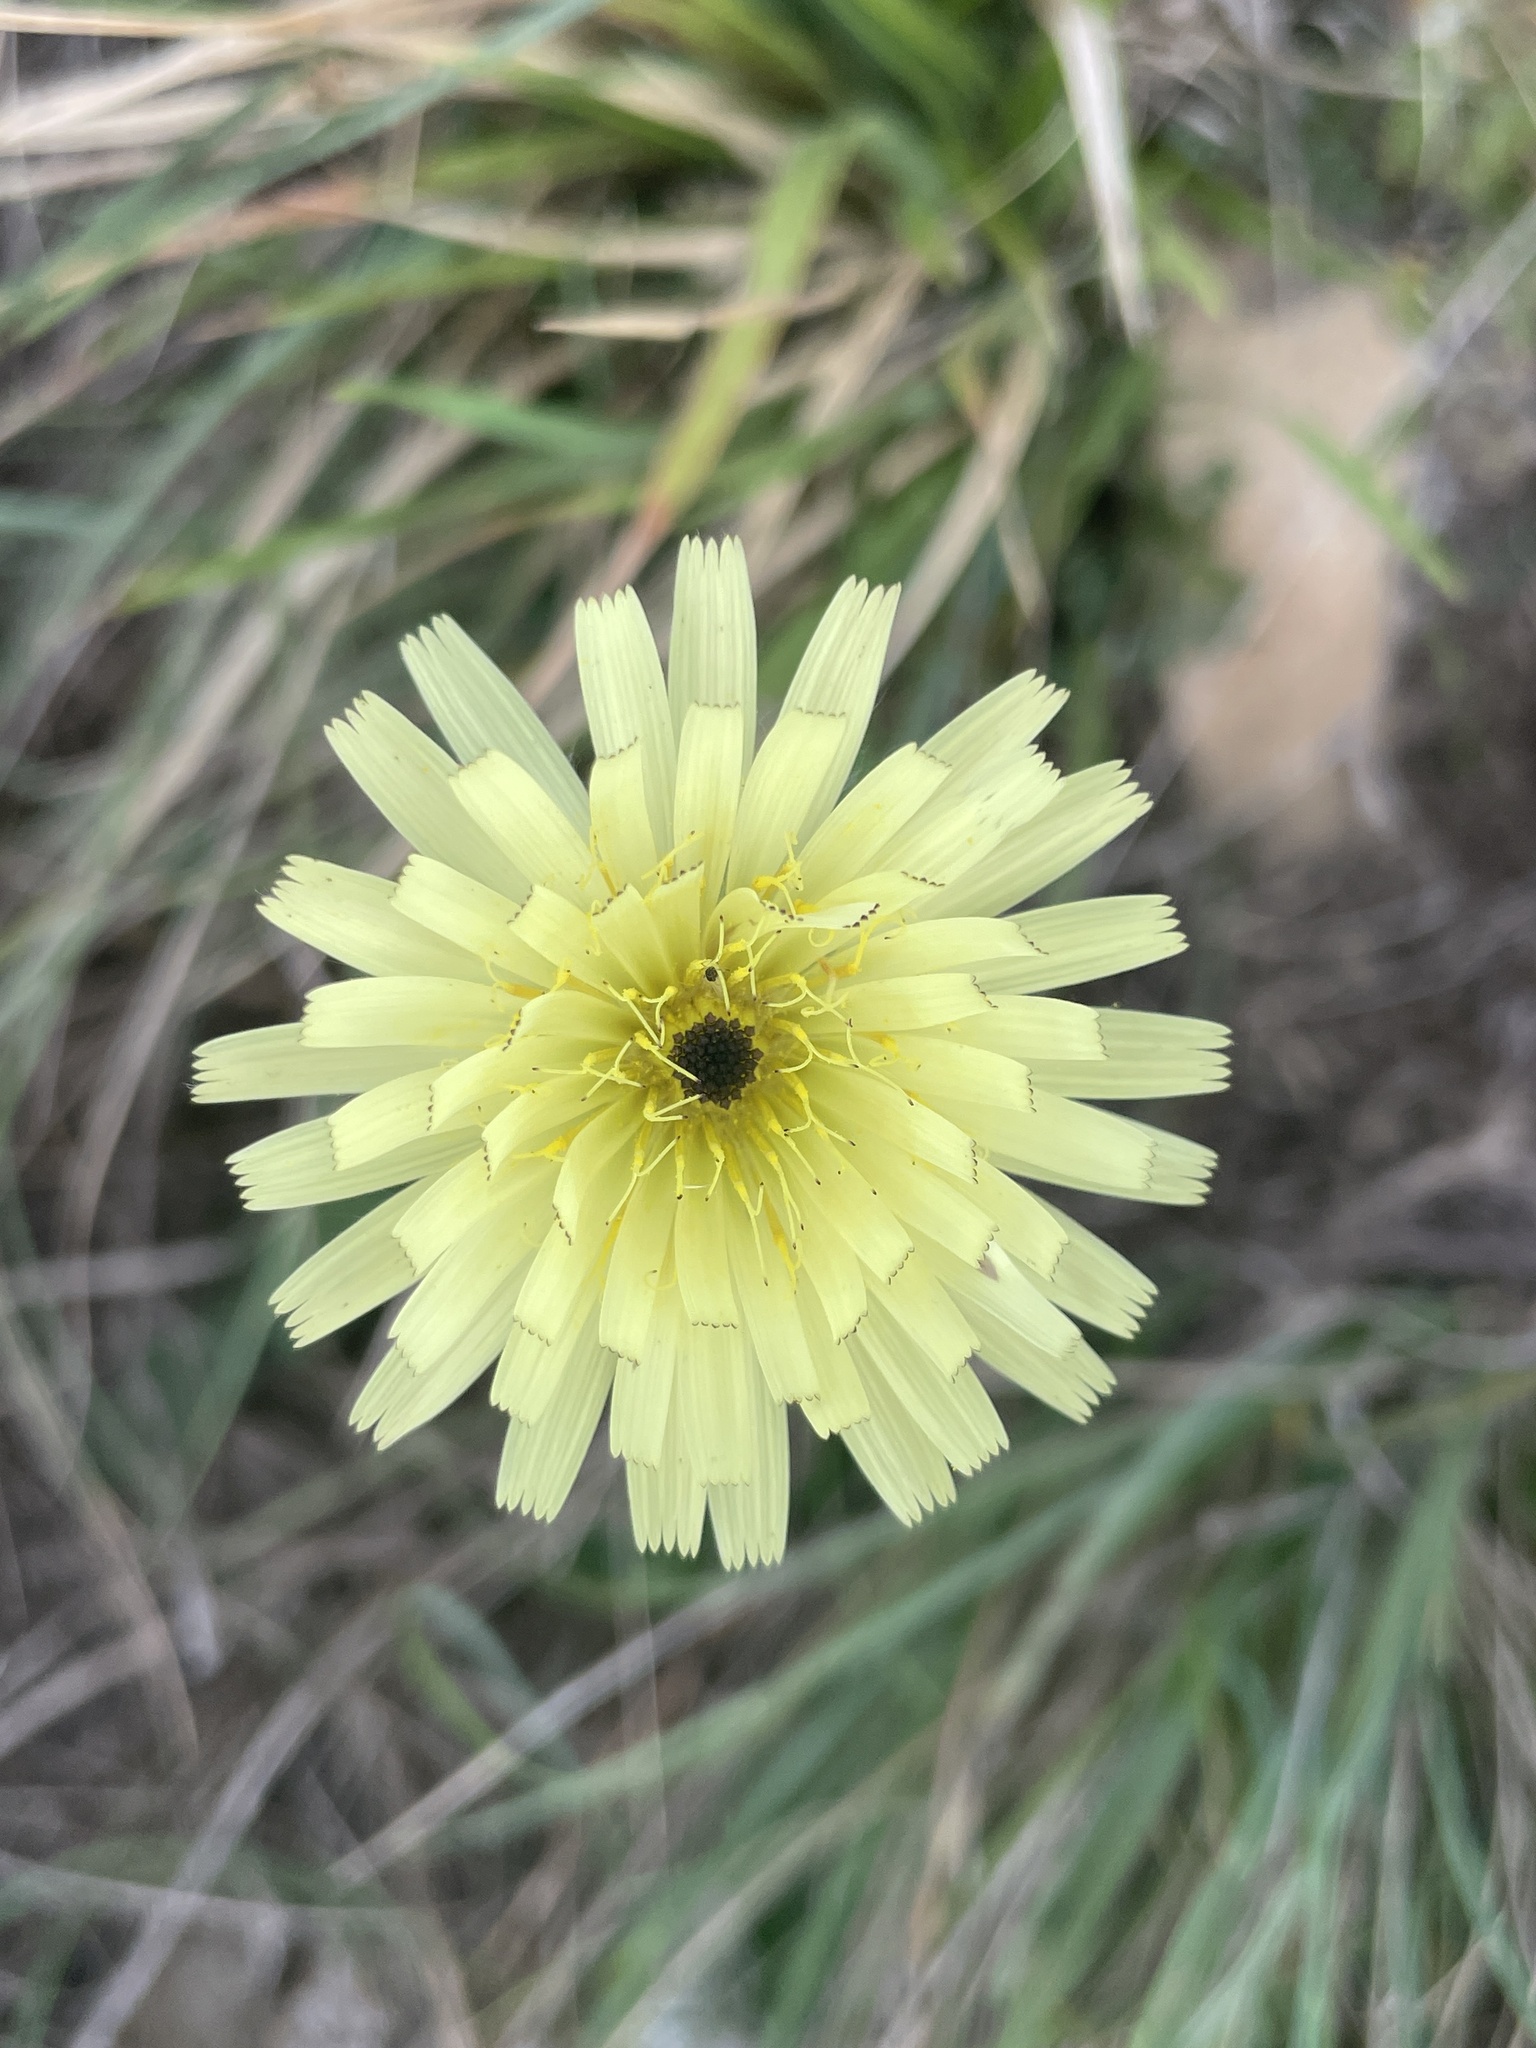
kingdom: Plantae
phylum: Tracheophyta
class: Magnoliopsida
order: Asterales
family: Asteraceae
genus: Urospermum
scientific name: Urospermum dalechampii
